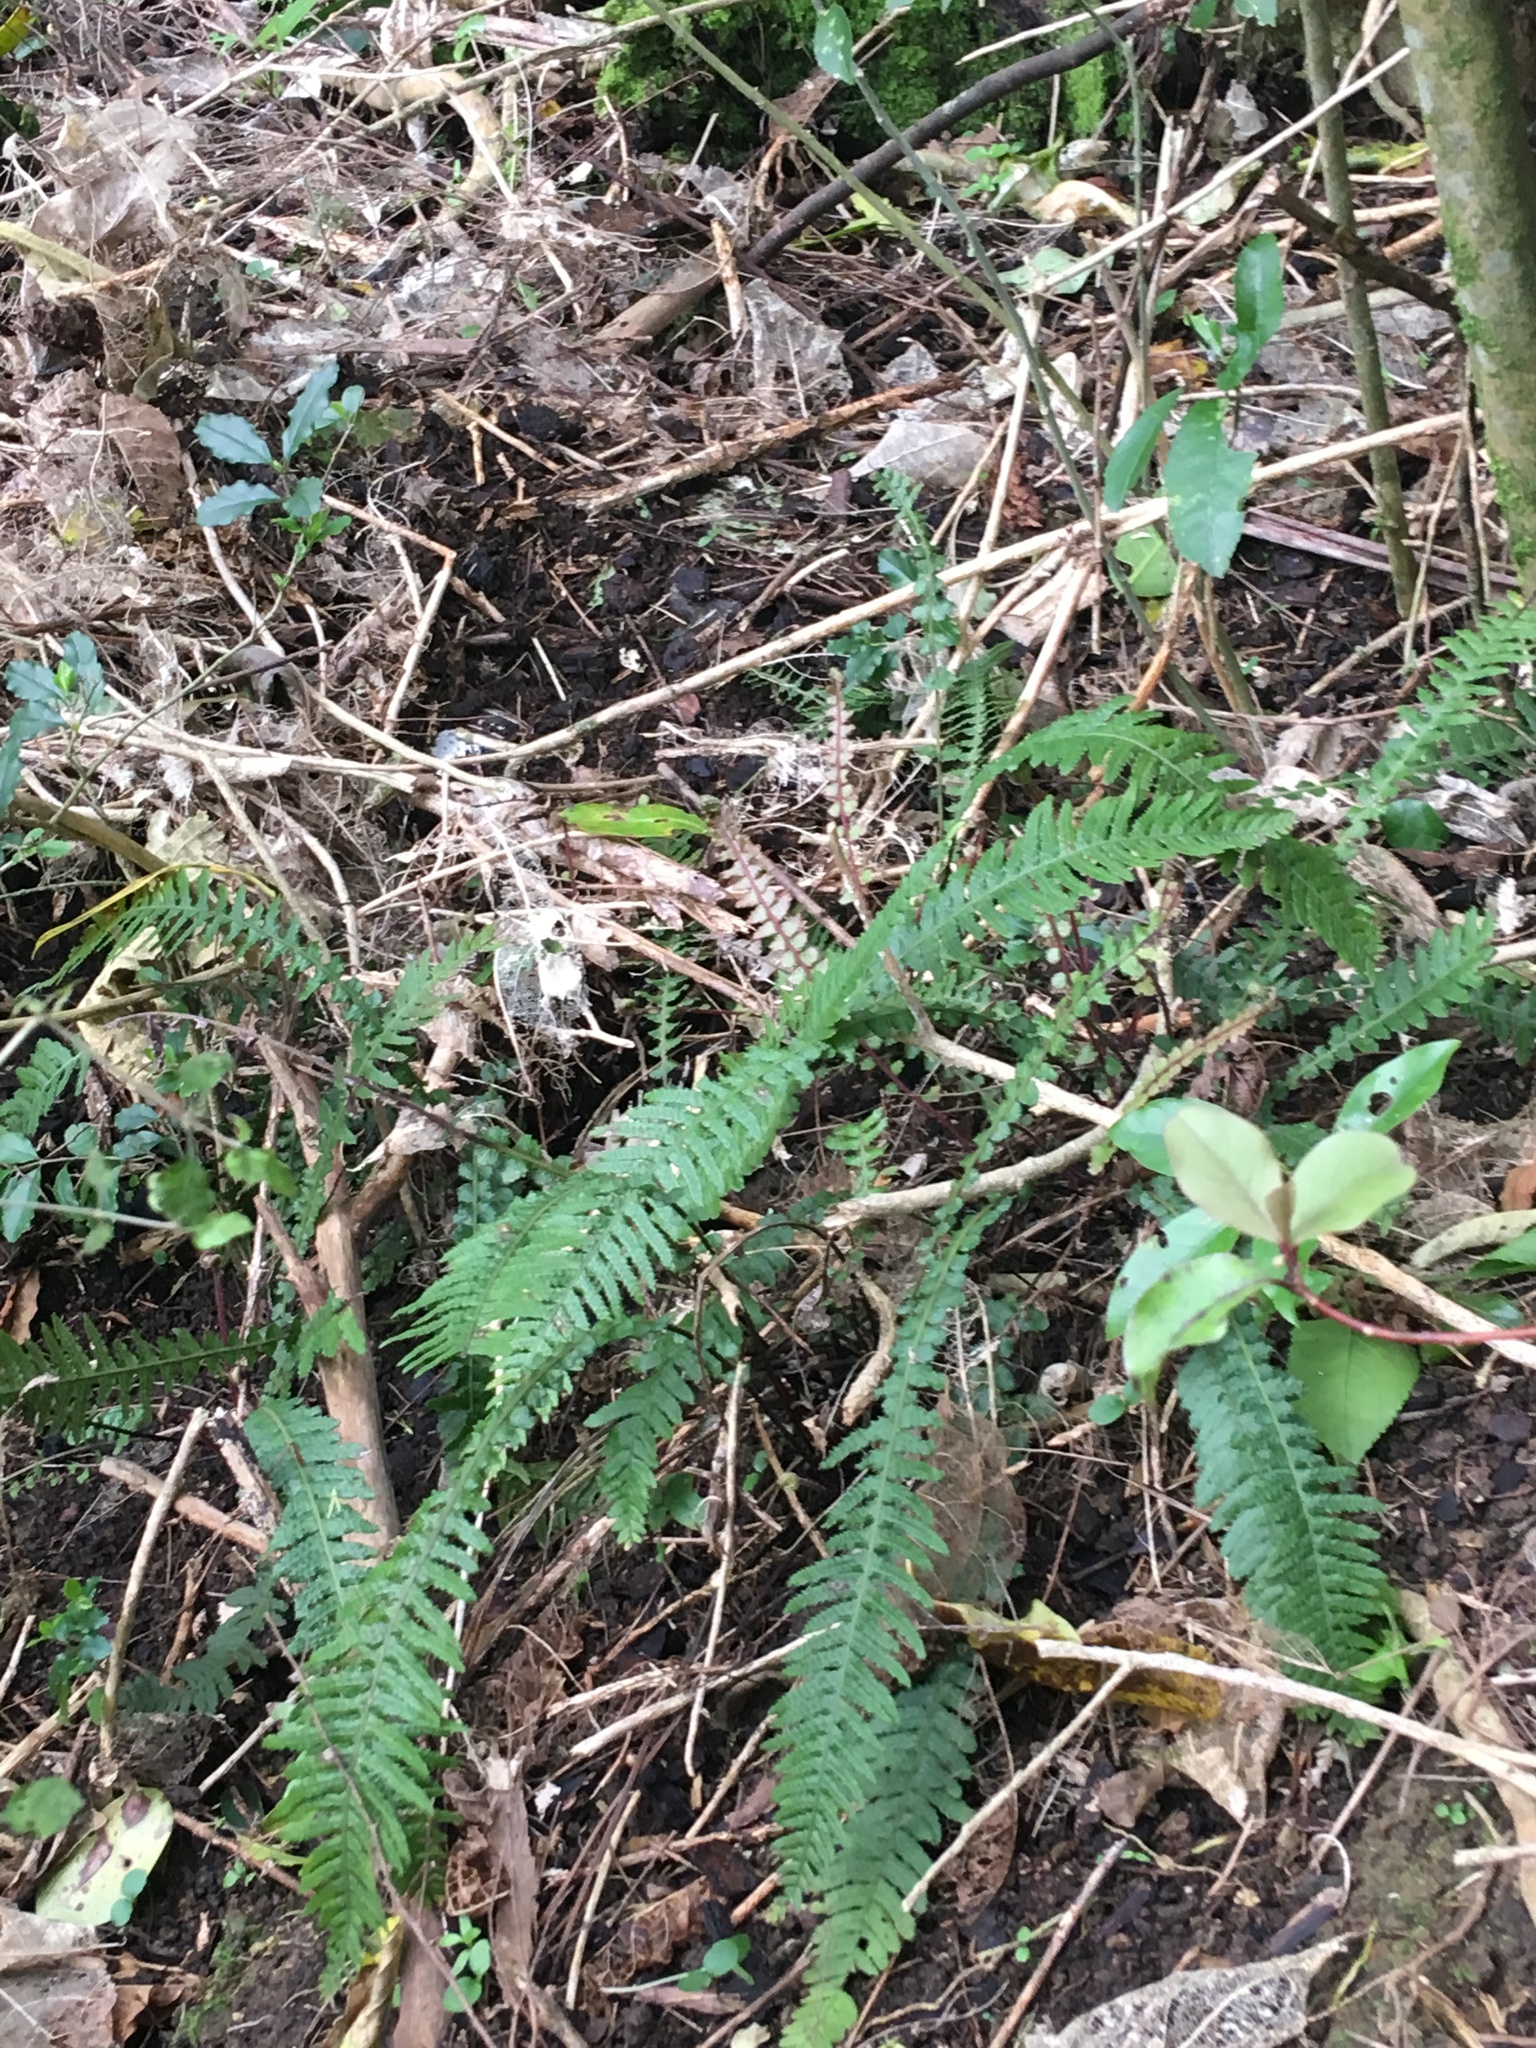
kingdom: Plantae
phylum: Tracheophyta
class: Polypodiopsida
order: Polypodiales
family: Blechnaceae
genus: Doodia
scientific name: Doodia australis
